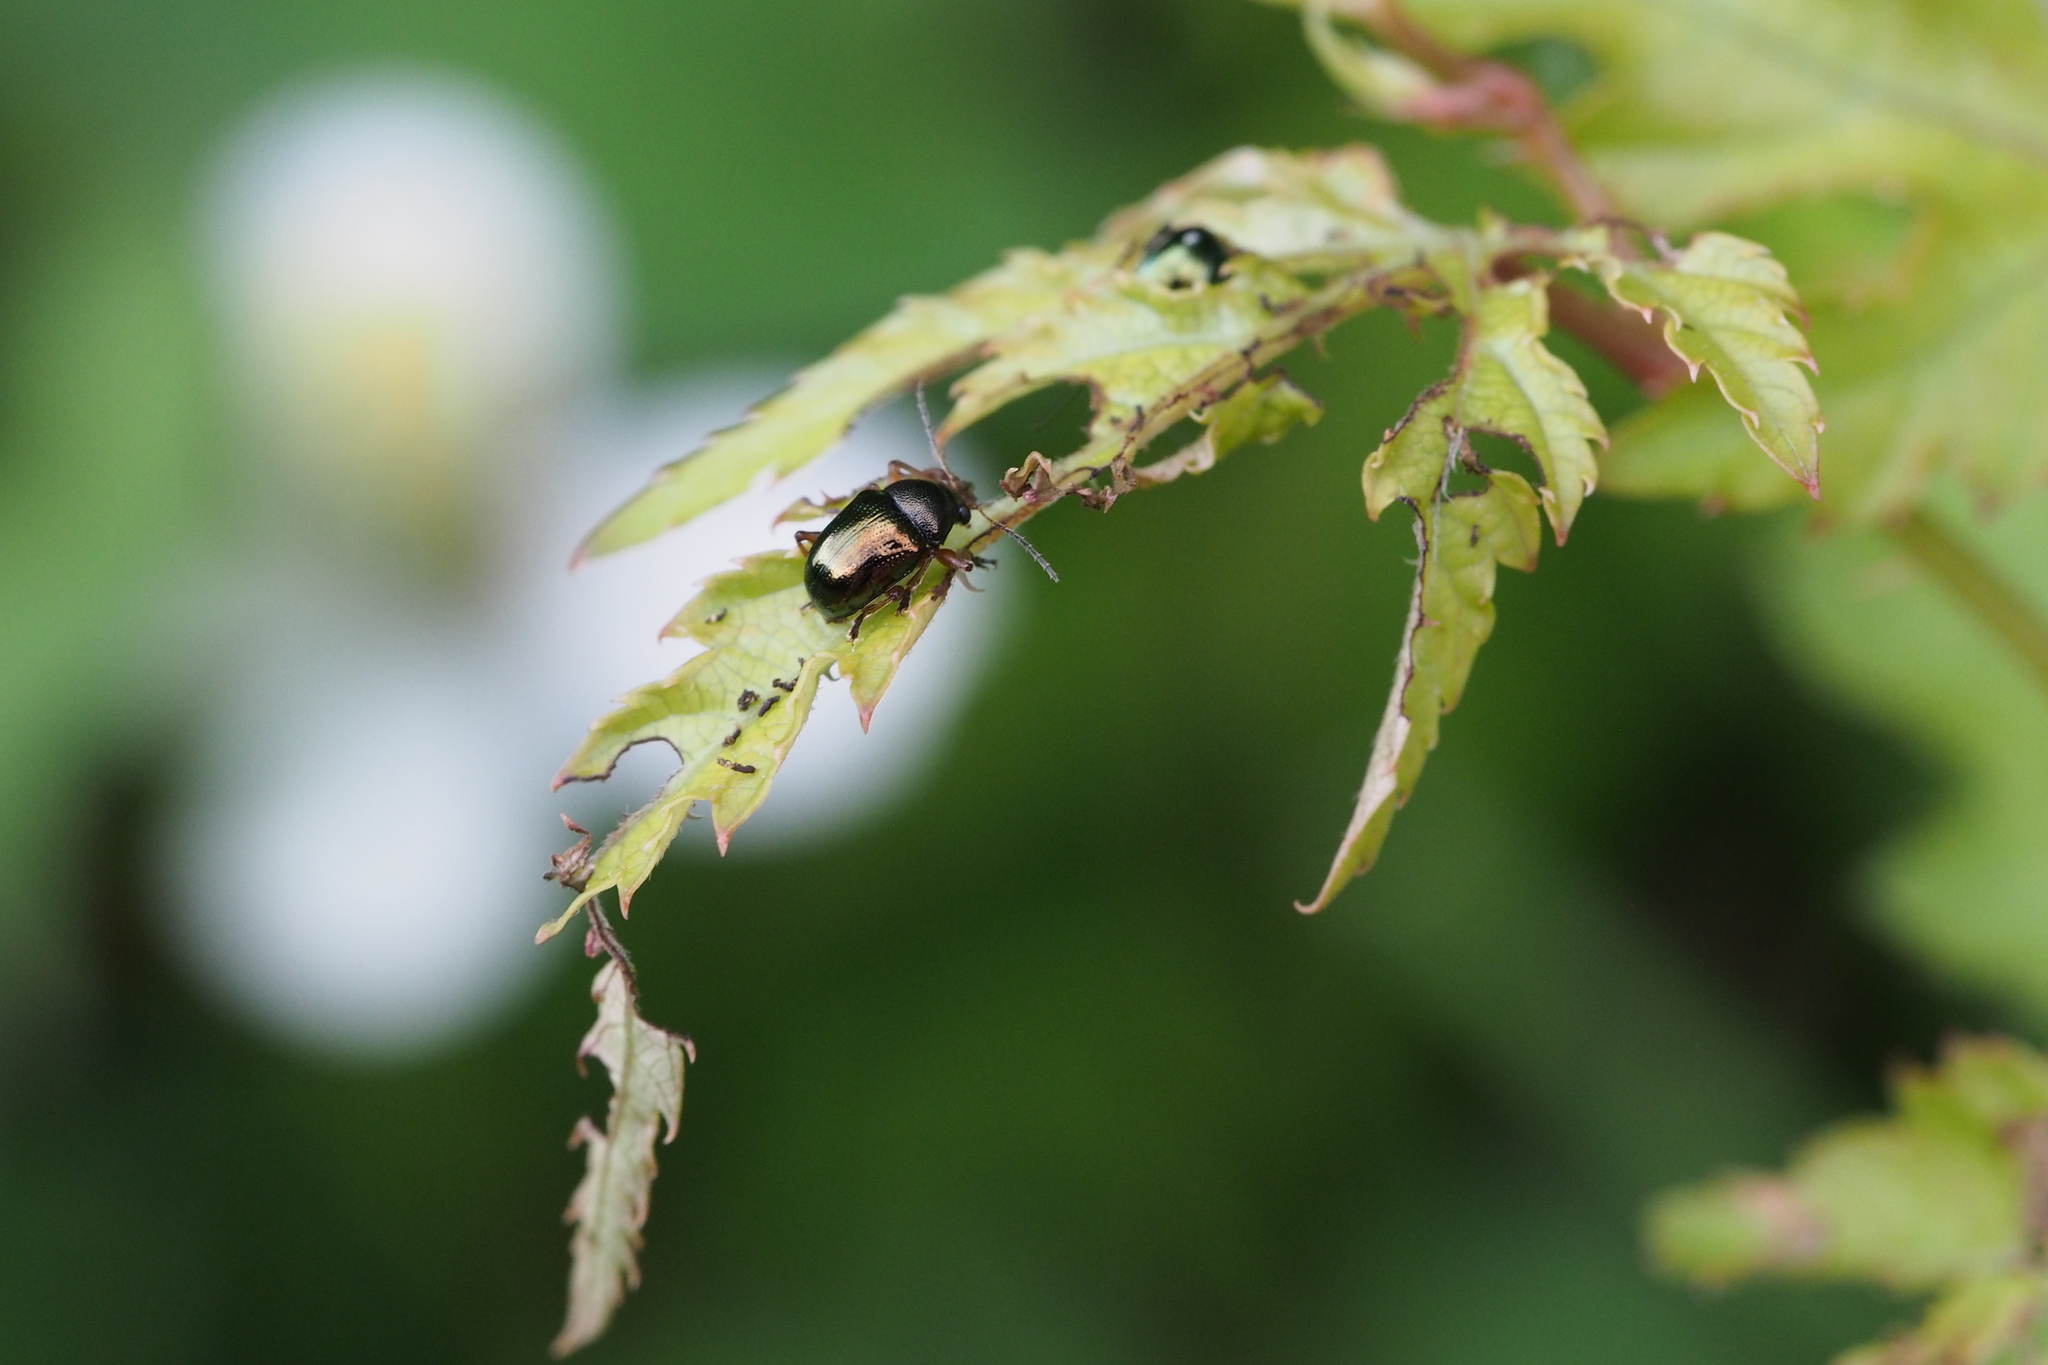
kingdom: Animalia
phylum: Arthropoda
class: Insecta
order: Coleoptera
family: Chrysomelidae
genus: Dactylispa
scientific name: Dactylispa fulvipes
